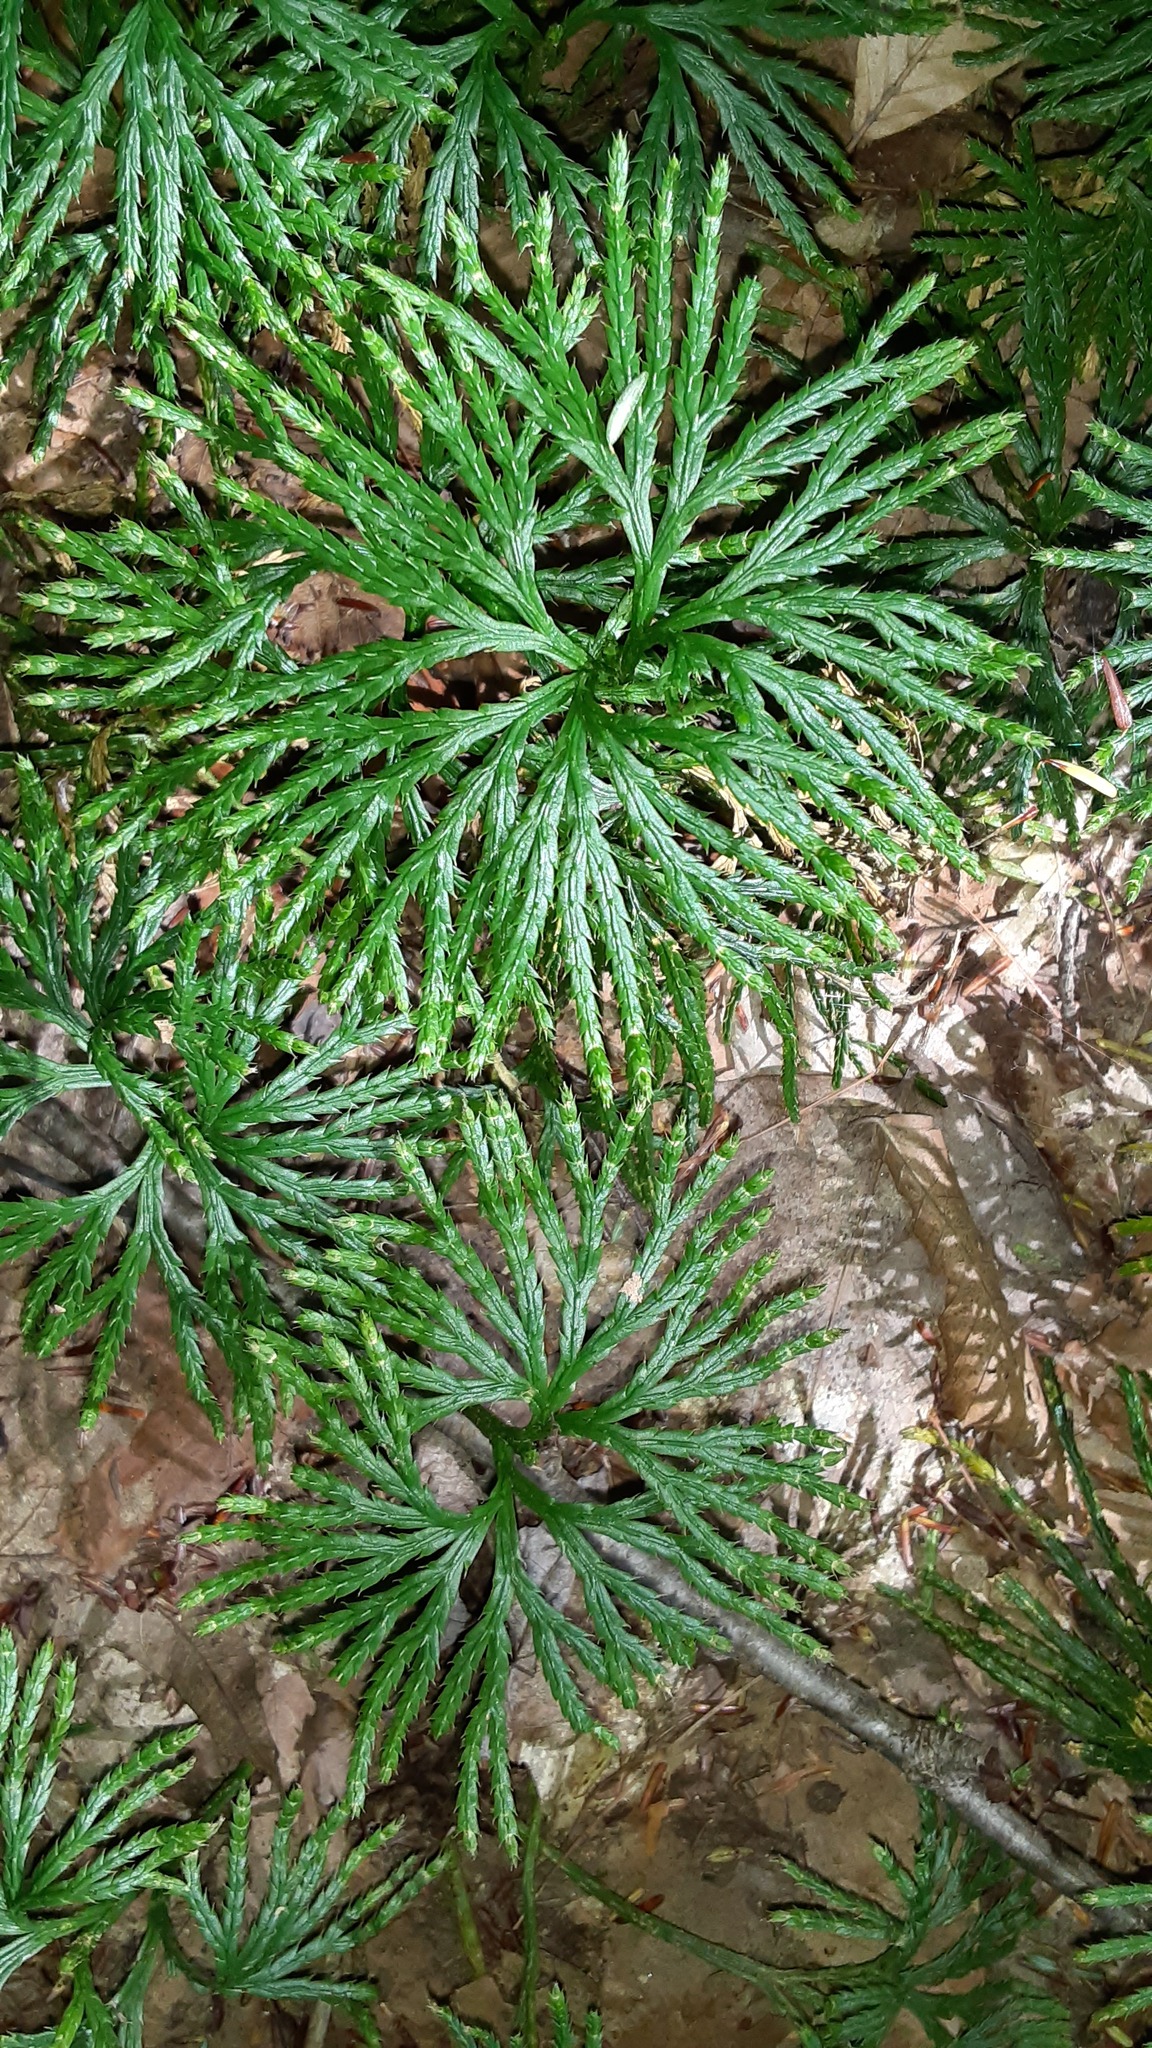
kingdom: Plantae
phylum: Tracheophyta
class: Lycopodiopsida
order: Lycopodiales
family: Lycopodiaceae
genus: Diphasiastrum
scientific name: Diphasiastrum digitatum
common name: Southern running-pine
